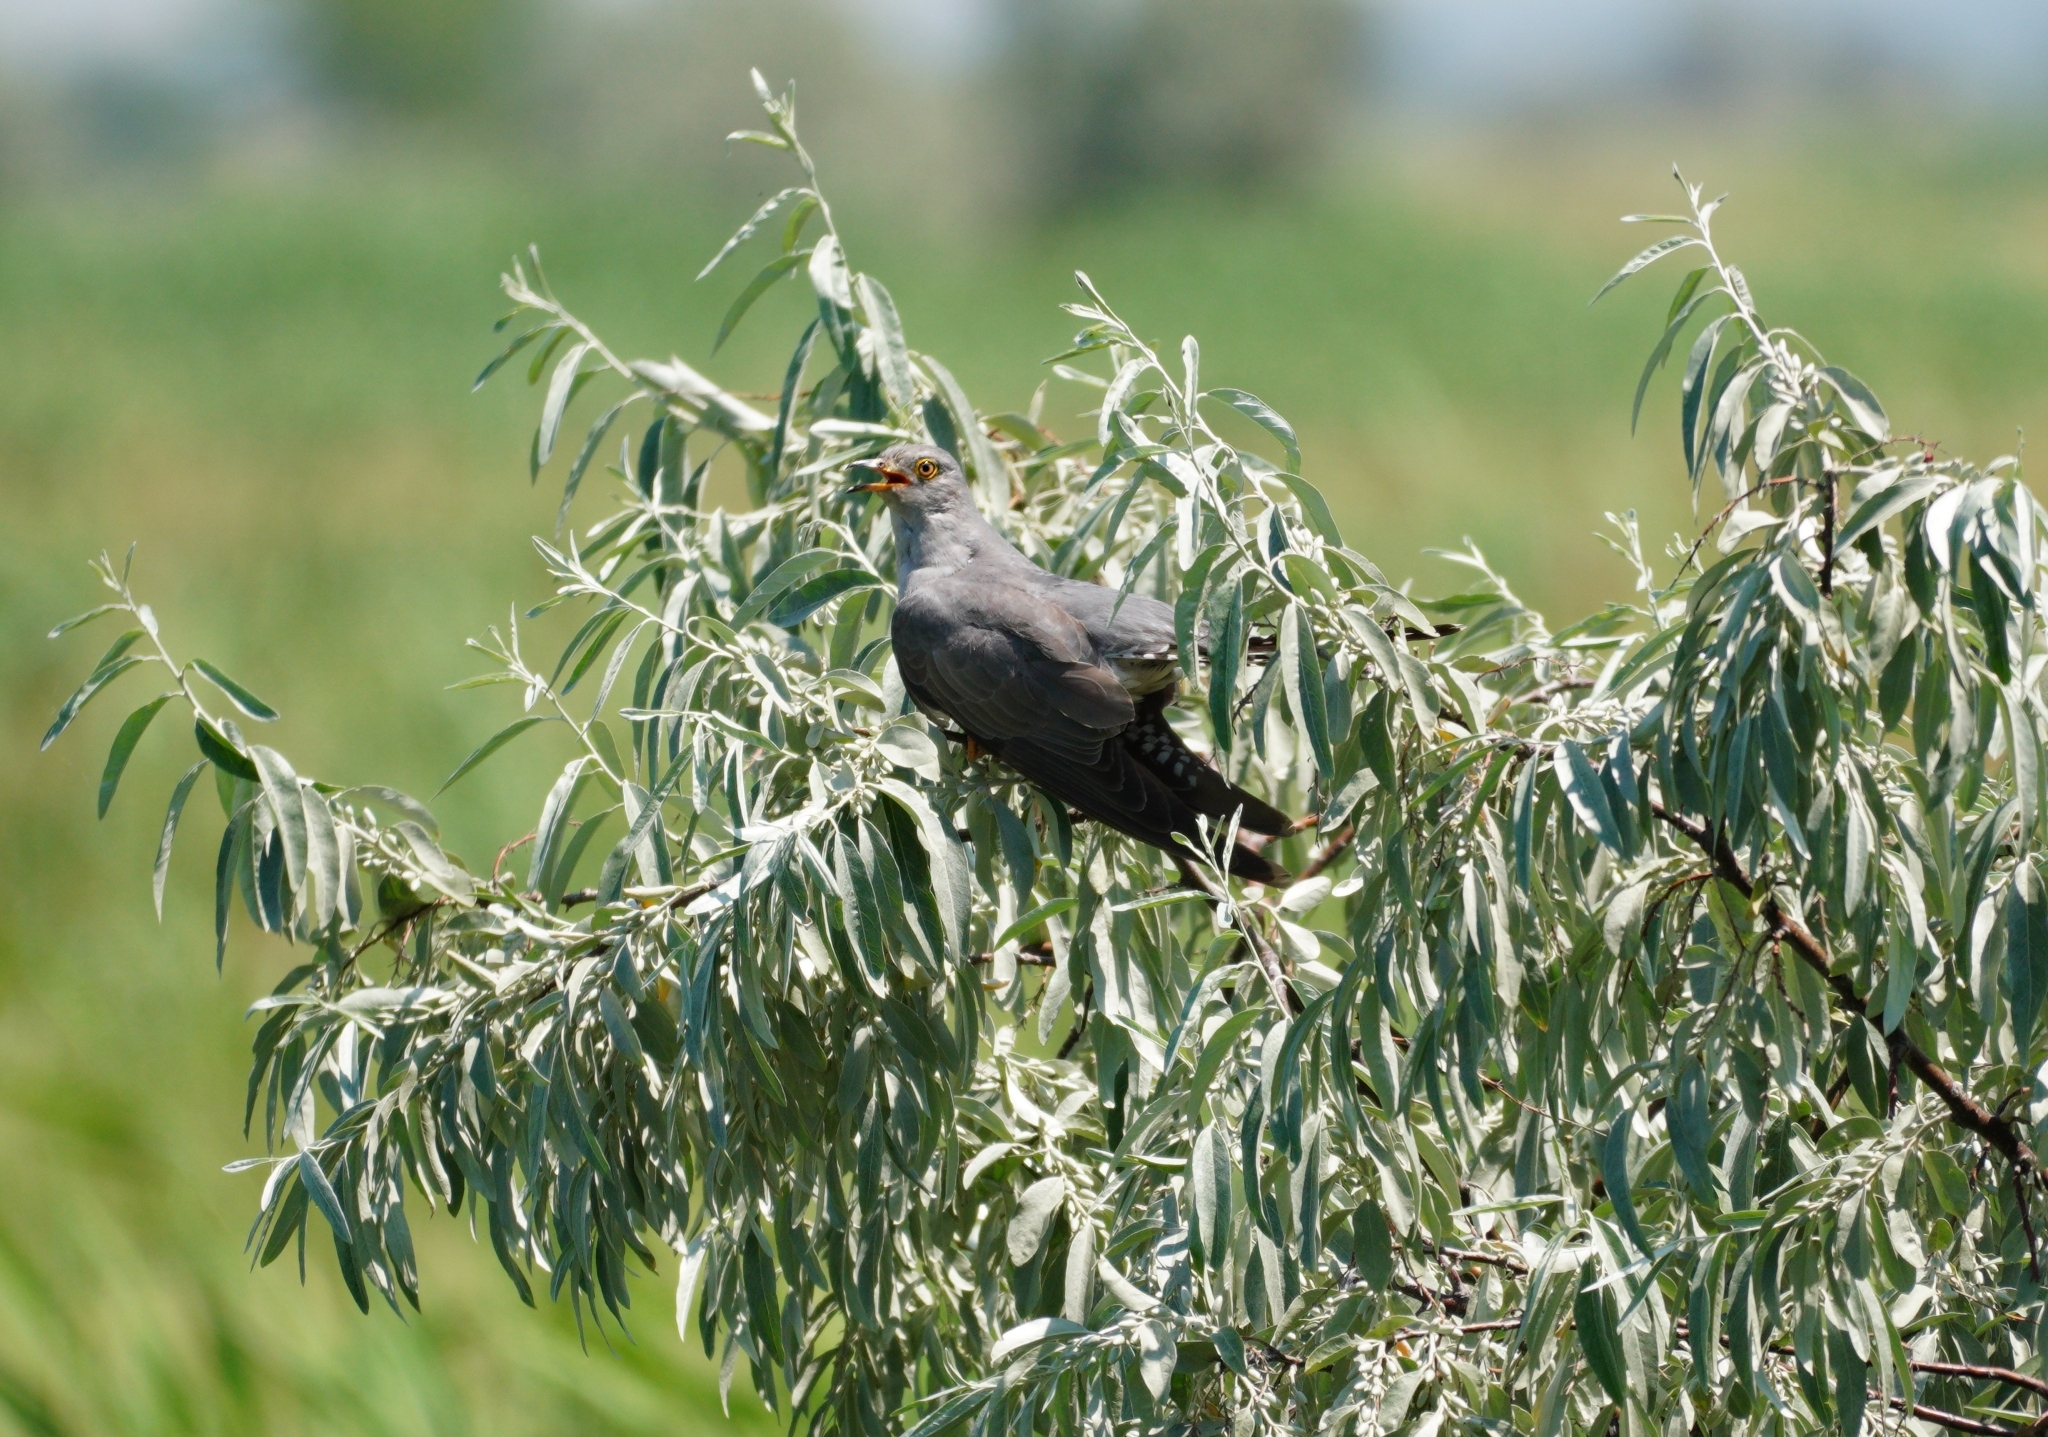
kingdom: Animalia
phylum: Chordata
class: Aves
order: Cuculiformes
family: Cuculidae
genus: Cuculus
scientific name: Cuculus canorus
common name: Common cuckoo
